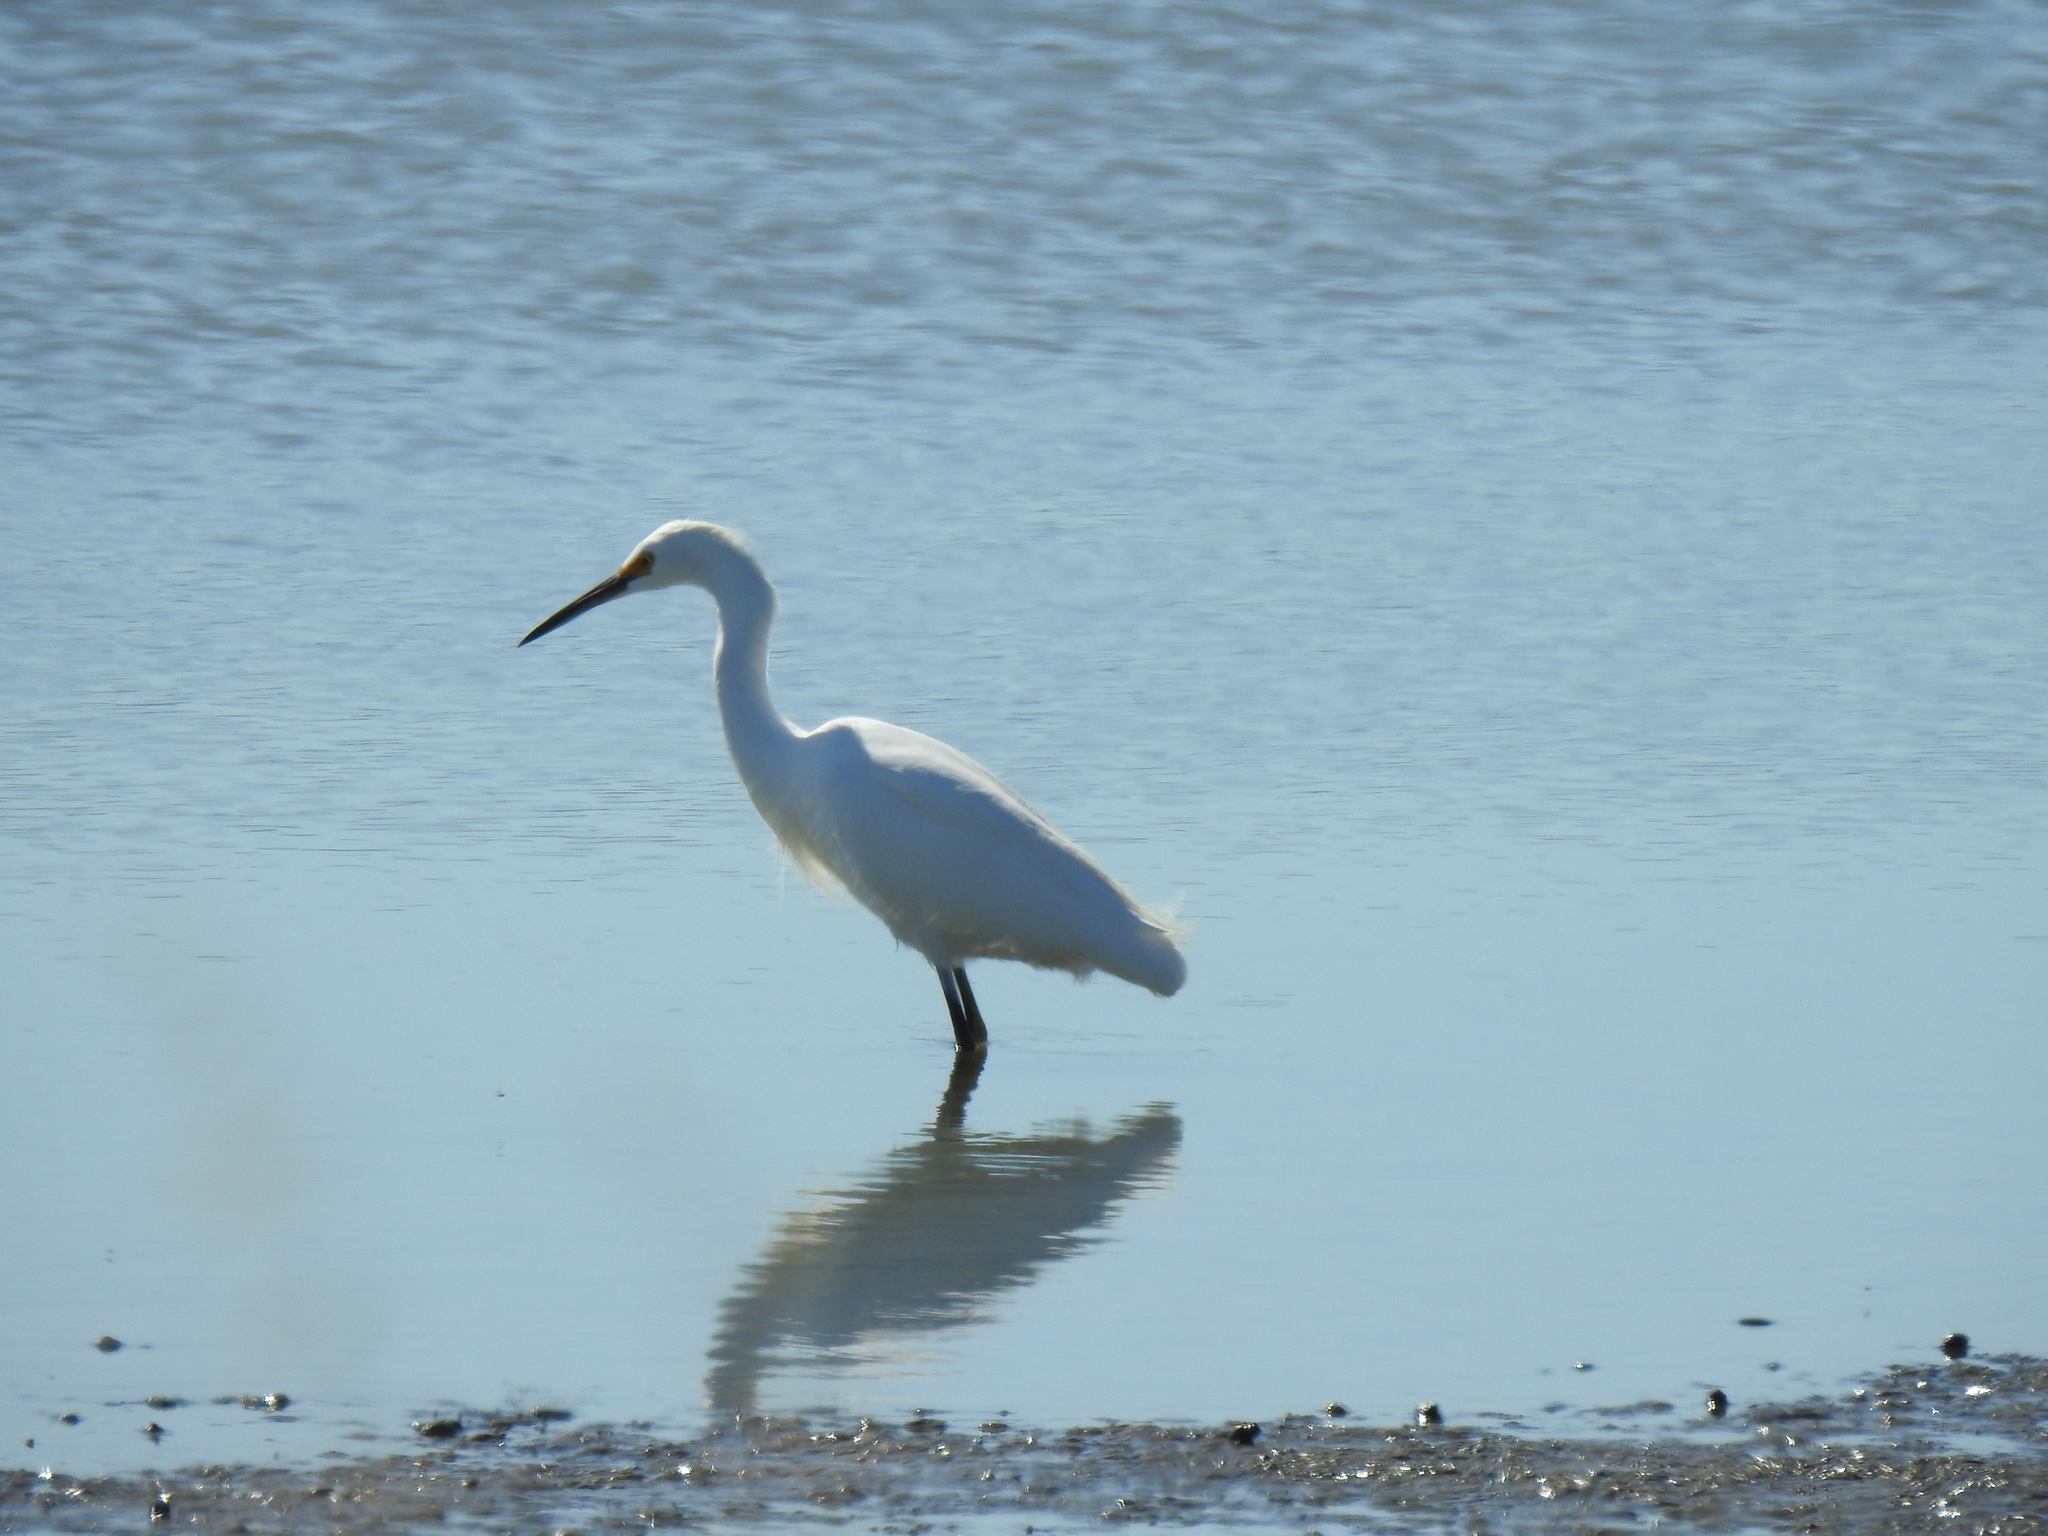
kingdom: Animalia
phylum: Chordata
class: Aves
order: Pelecaniformes
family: Ardeidae
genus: Egretta
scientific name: Egretta thula
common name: Snowy egret
